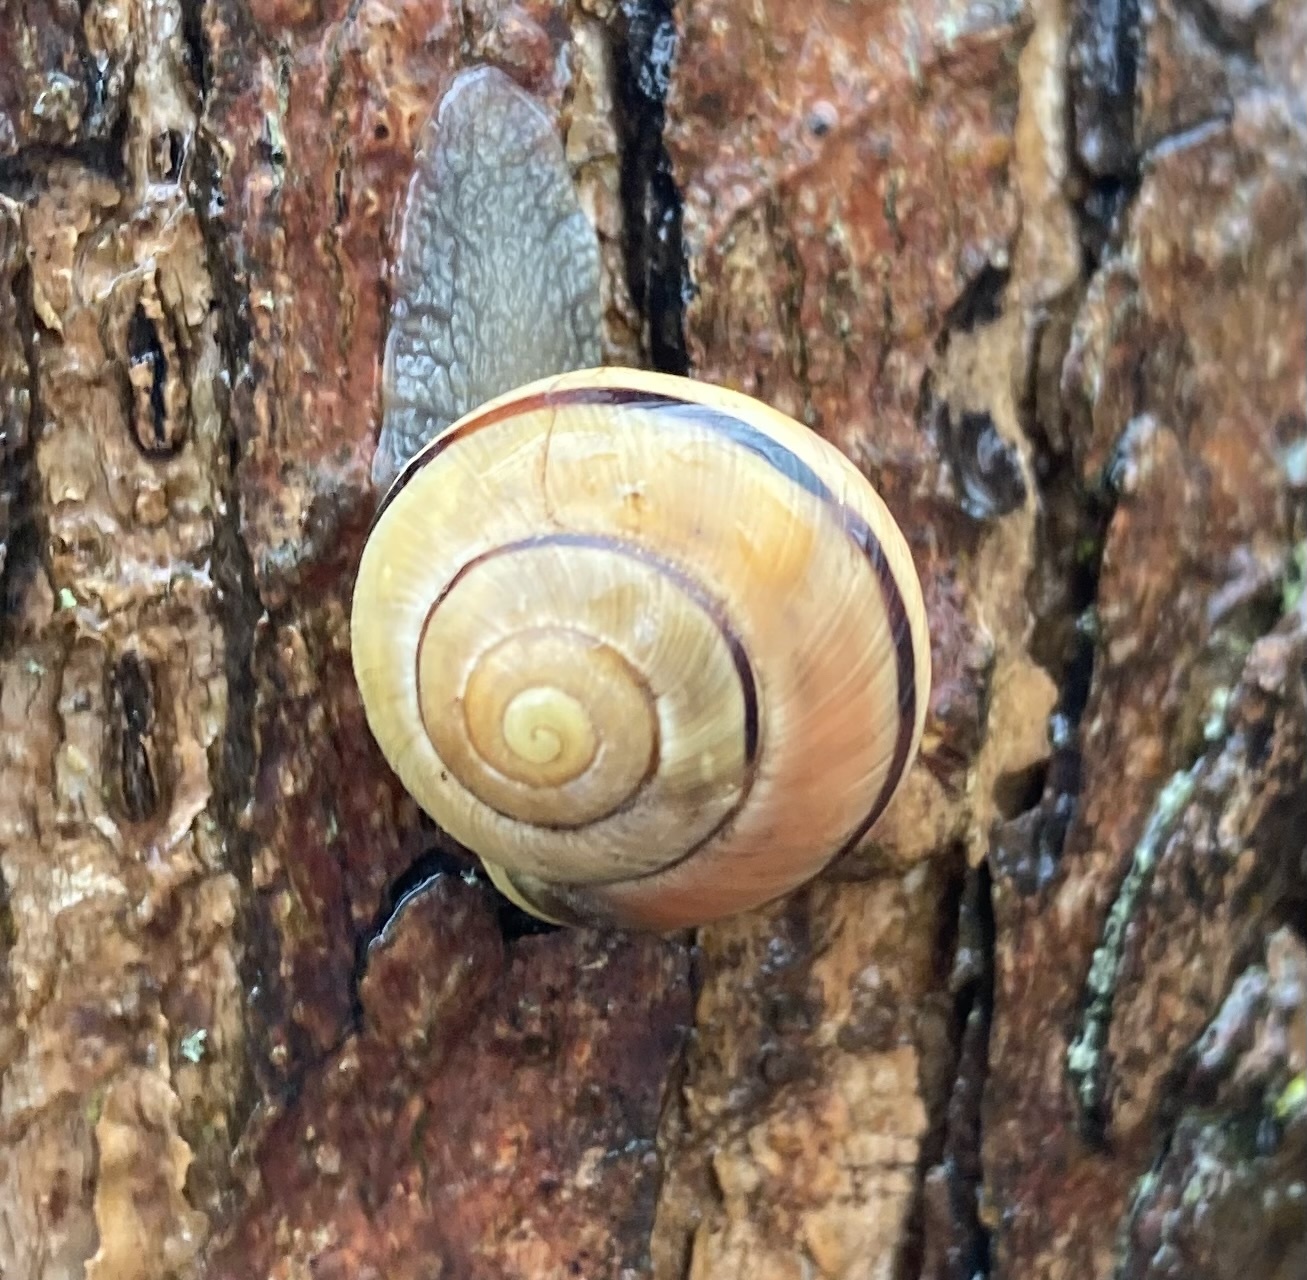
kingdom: Animalia
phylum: Mollusca
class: Gastropoda
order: Stylommatophora
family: Helicidae
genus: Cepaea
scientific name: Cepaea nemoralis
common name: Grovesnail
